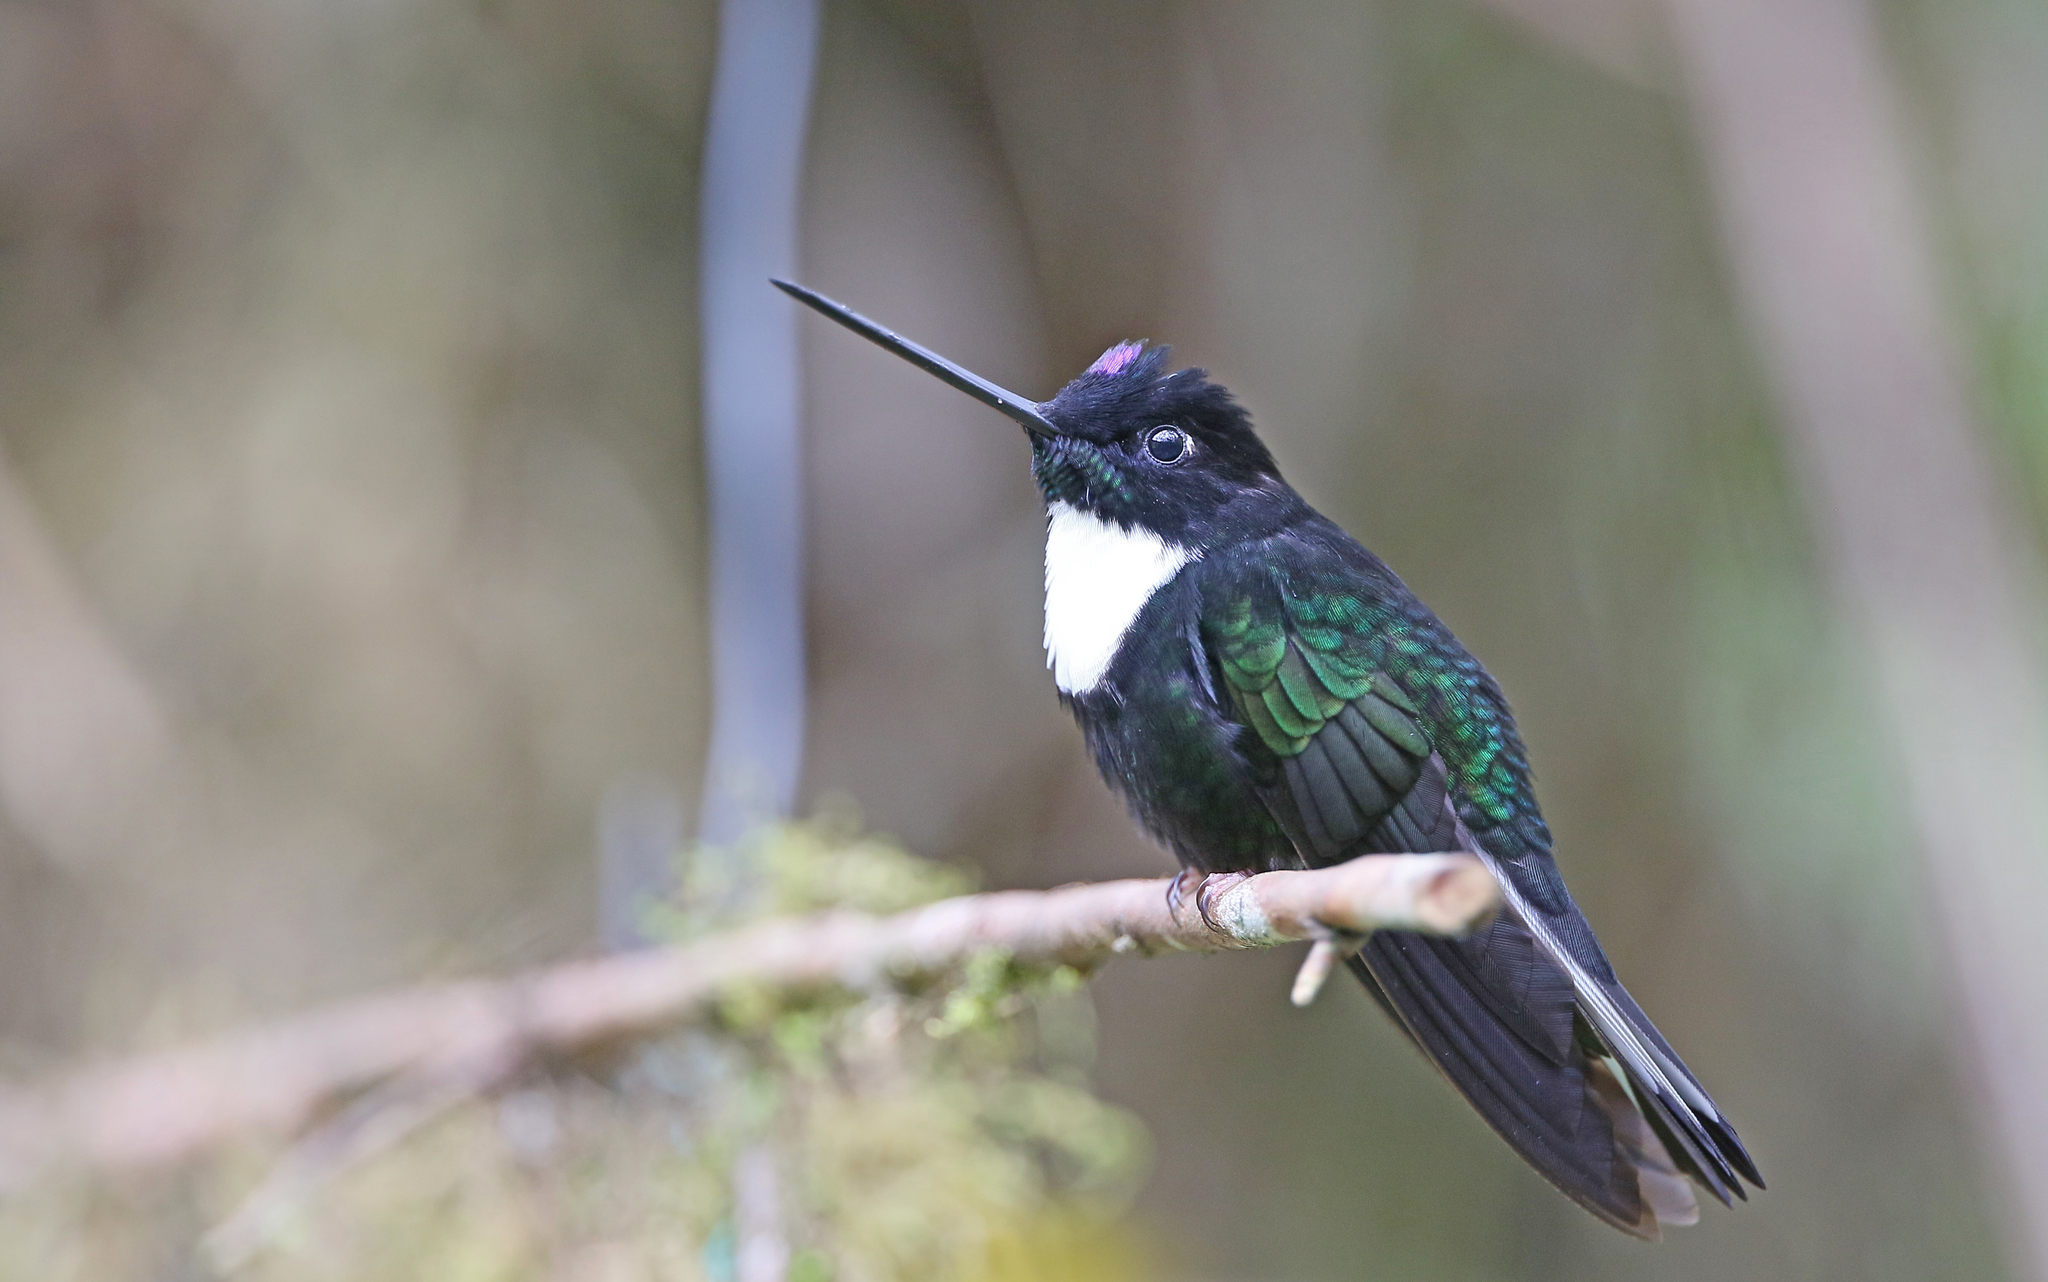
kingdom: Animalia
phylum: Chordata
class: Aves
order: Apodiformes
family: Trochilidae
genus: Coeligena
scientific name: Coeligena torquata
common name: Collared inca
